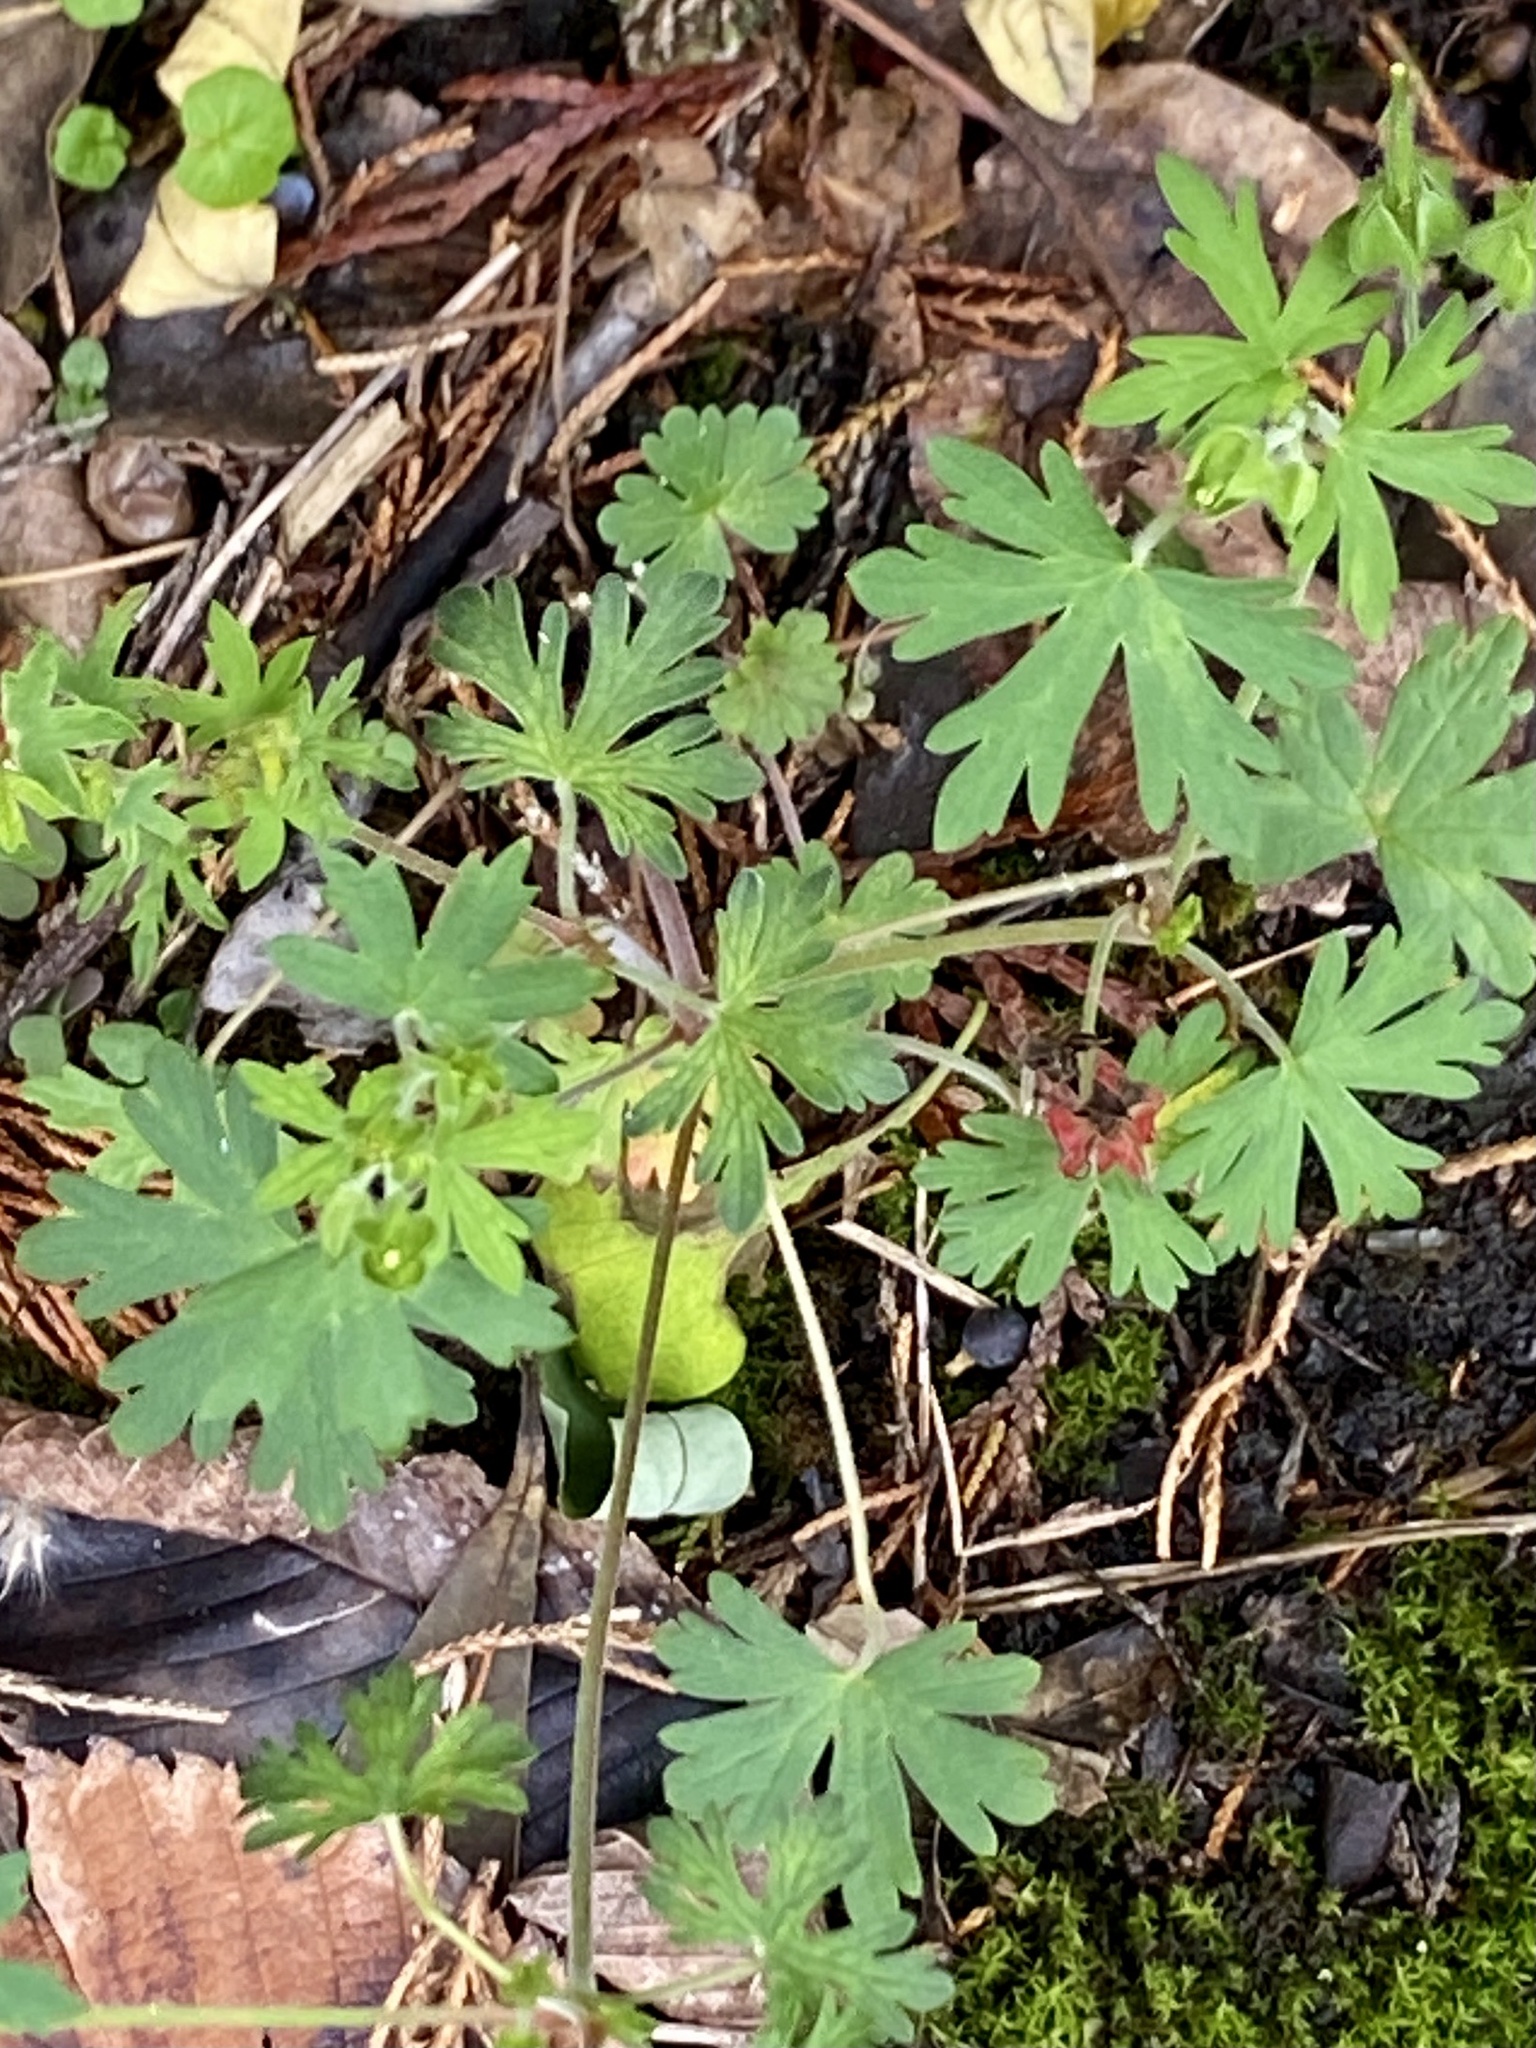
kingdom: Plantae
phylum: Tracheophyta
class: Magnoliopsida
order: Geraniales
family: Geraniaceae
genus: Geranium
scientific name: Geranium carolinianum
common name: Carolina crane's-bill
